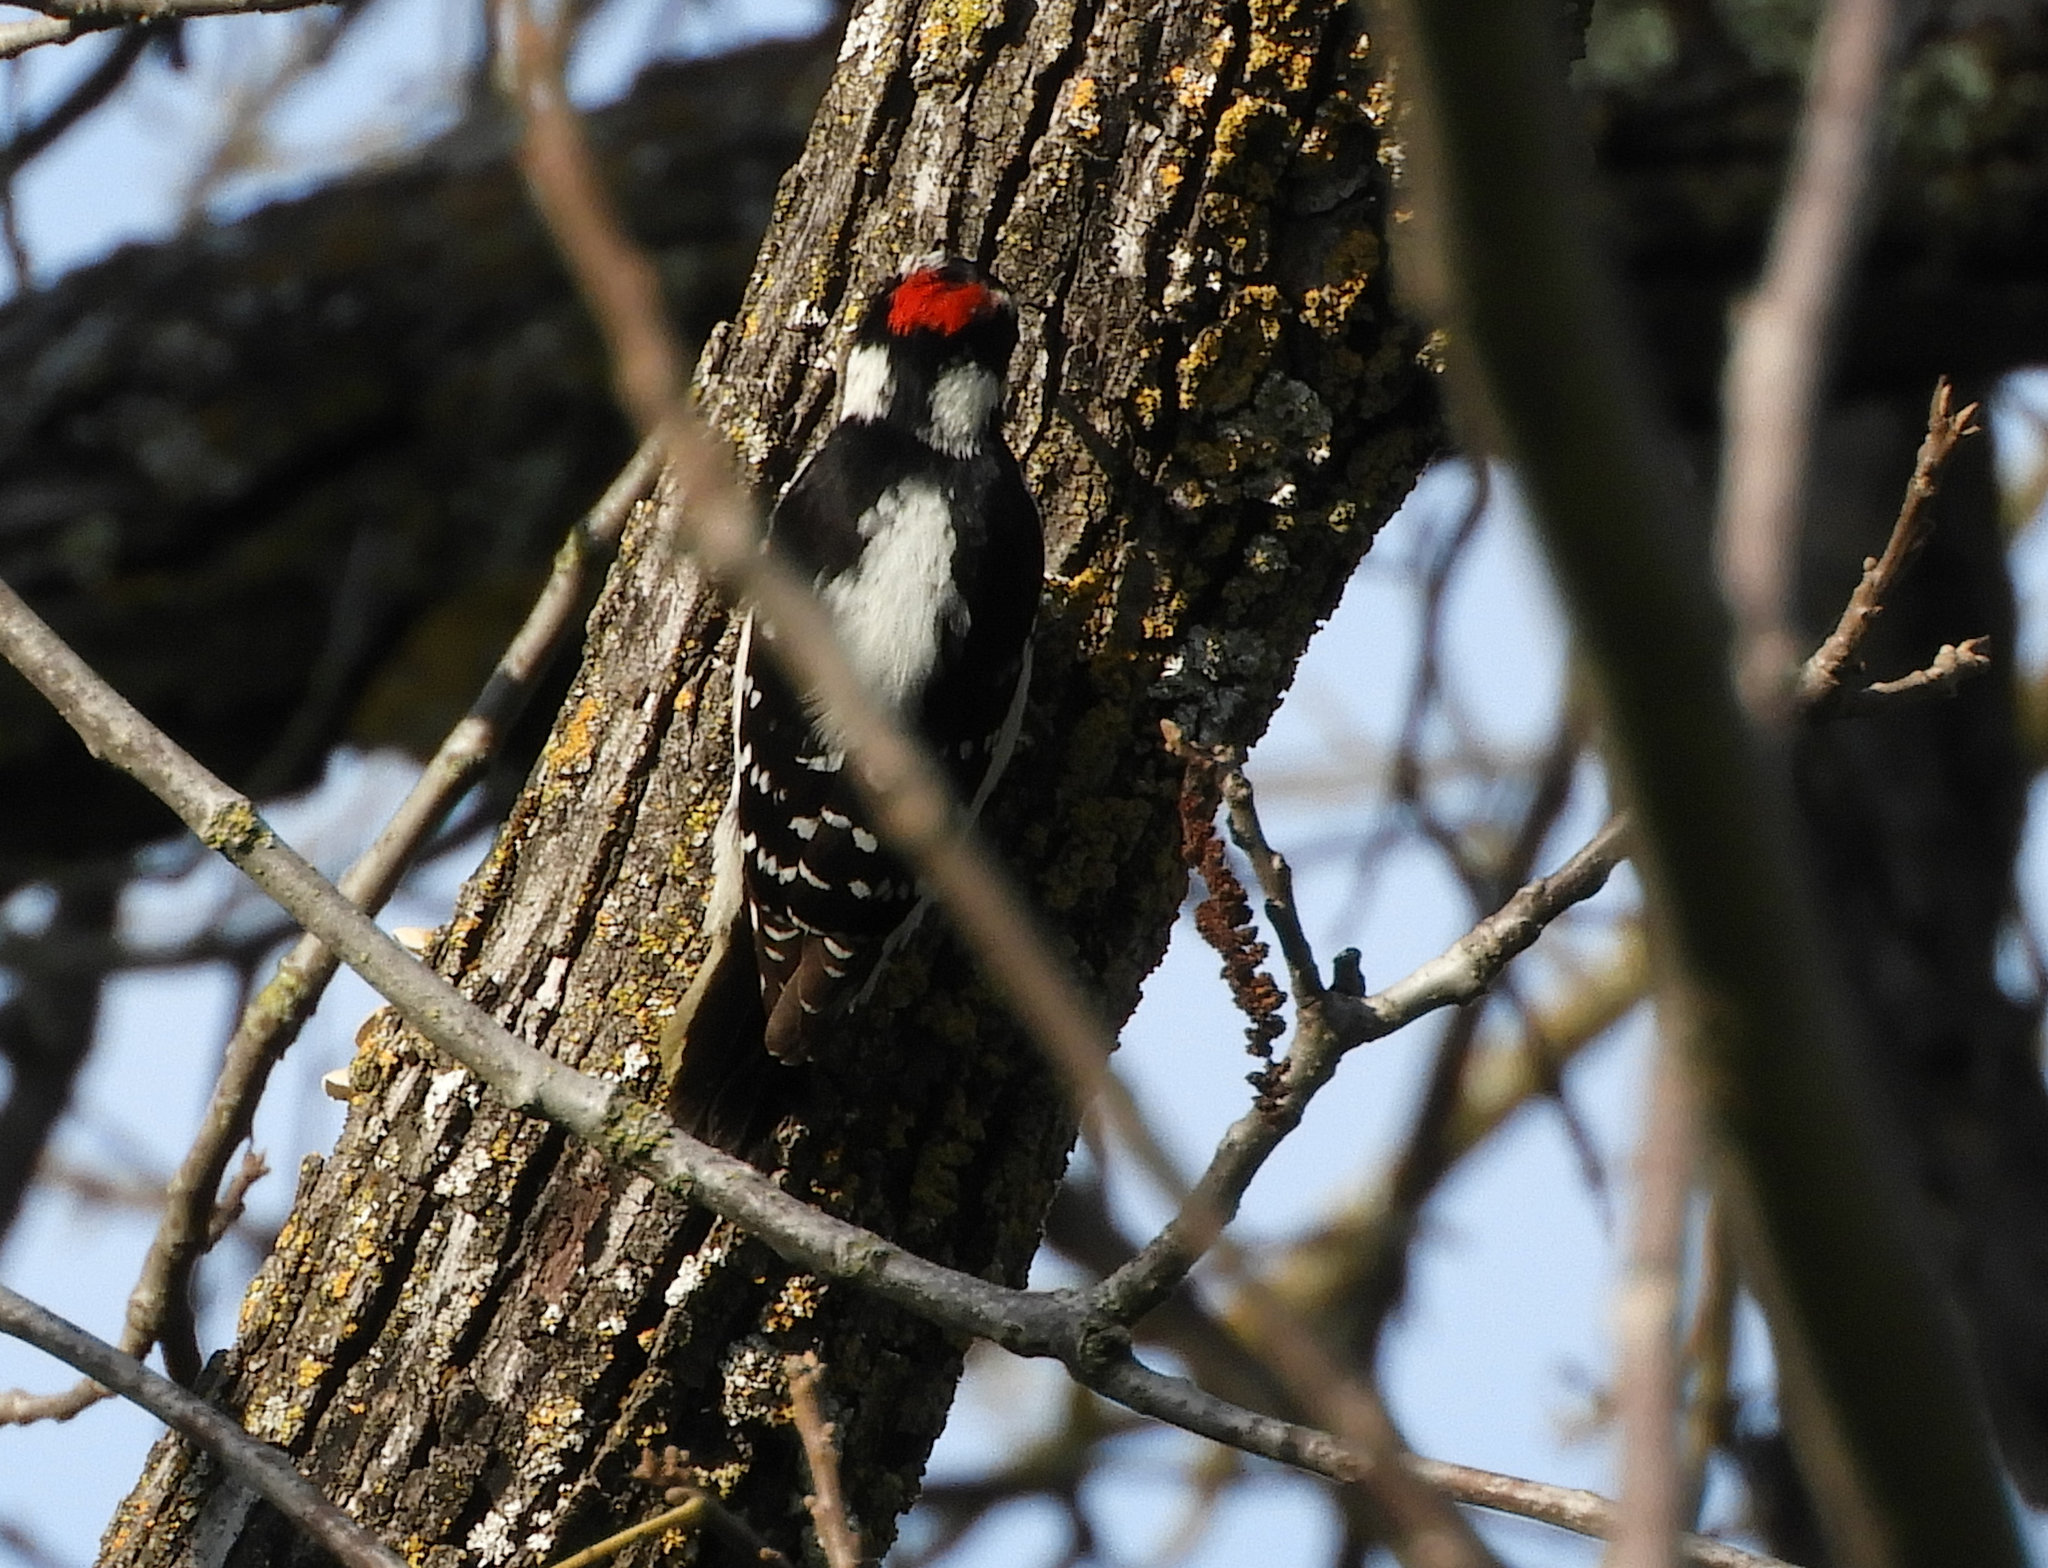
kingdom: Animalia
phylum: Chordata
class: Aves
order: Piciformes
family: Picidae
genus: Dryobates
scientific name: Dryobates pubescens
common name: Downy woodpecker
